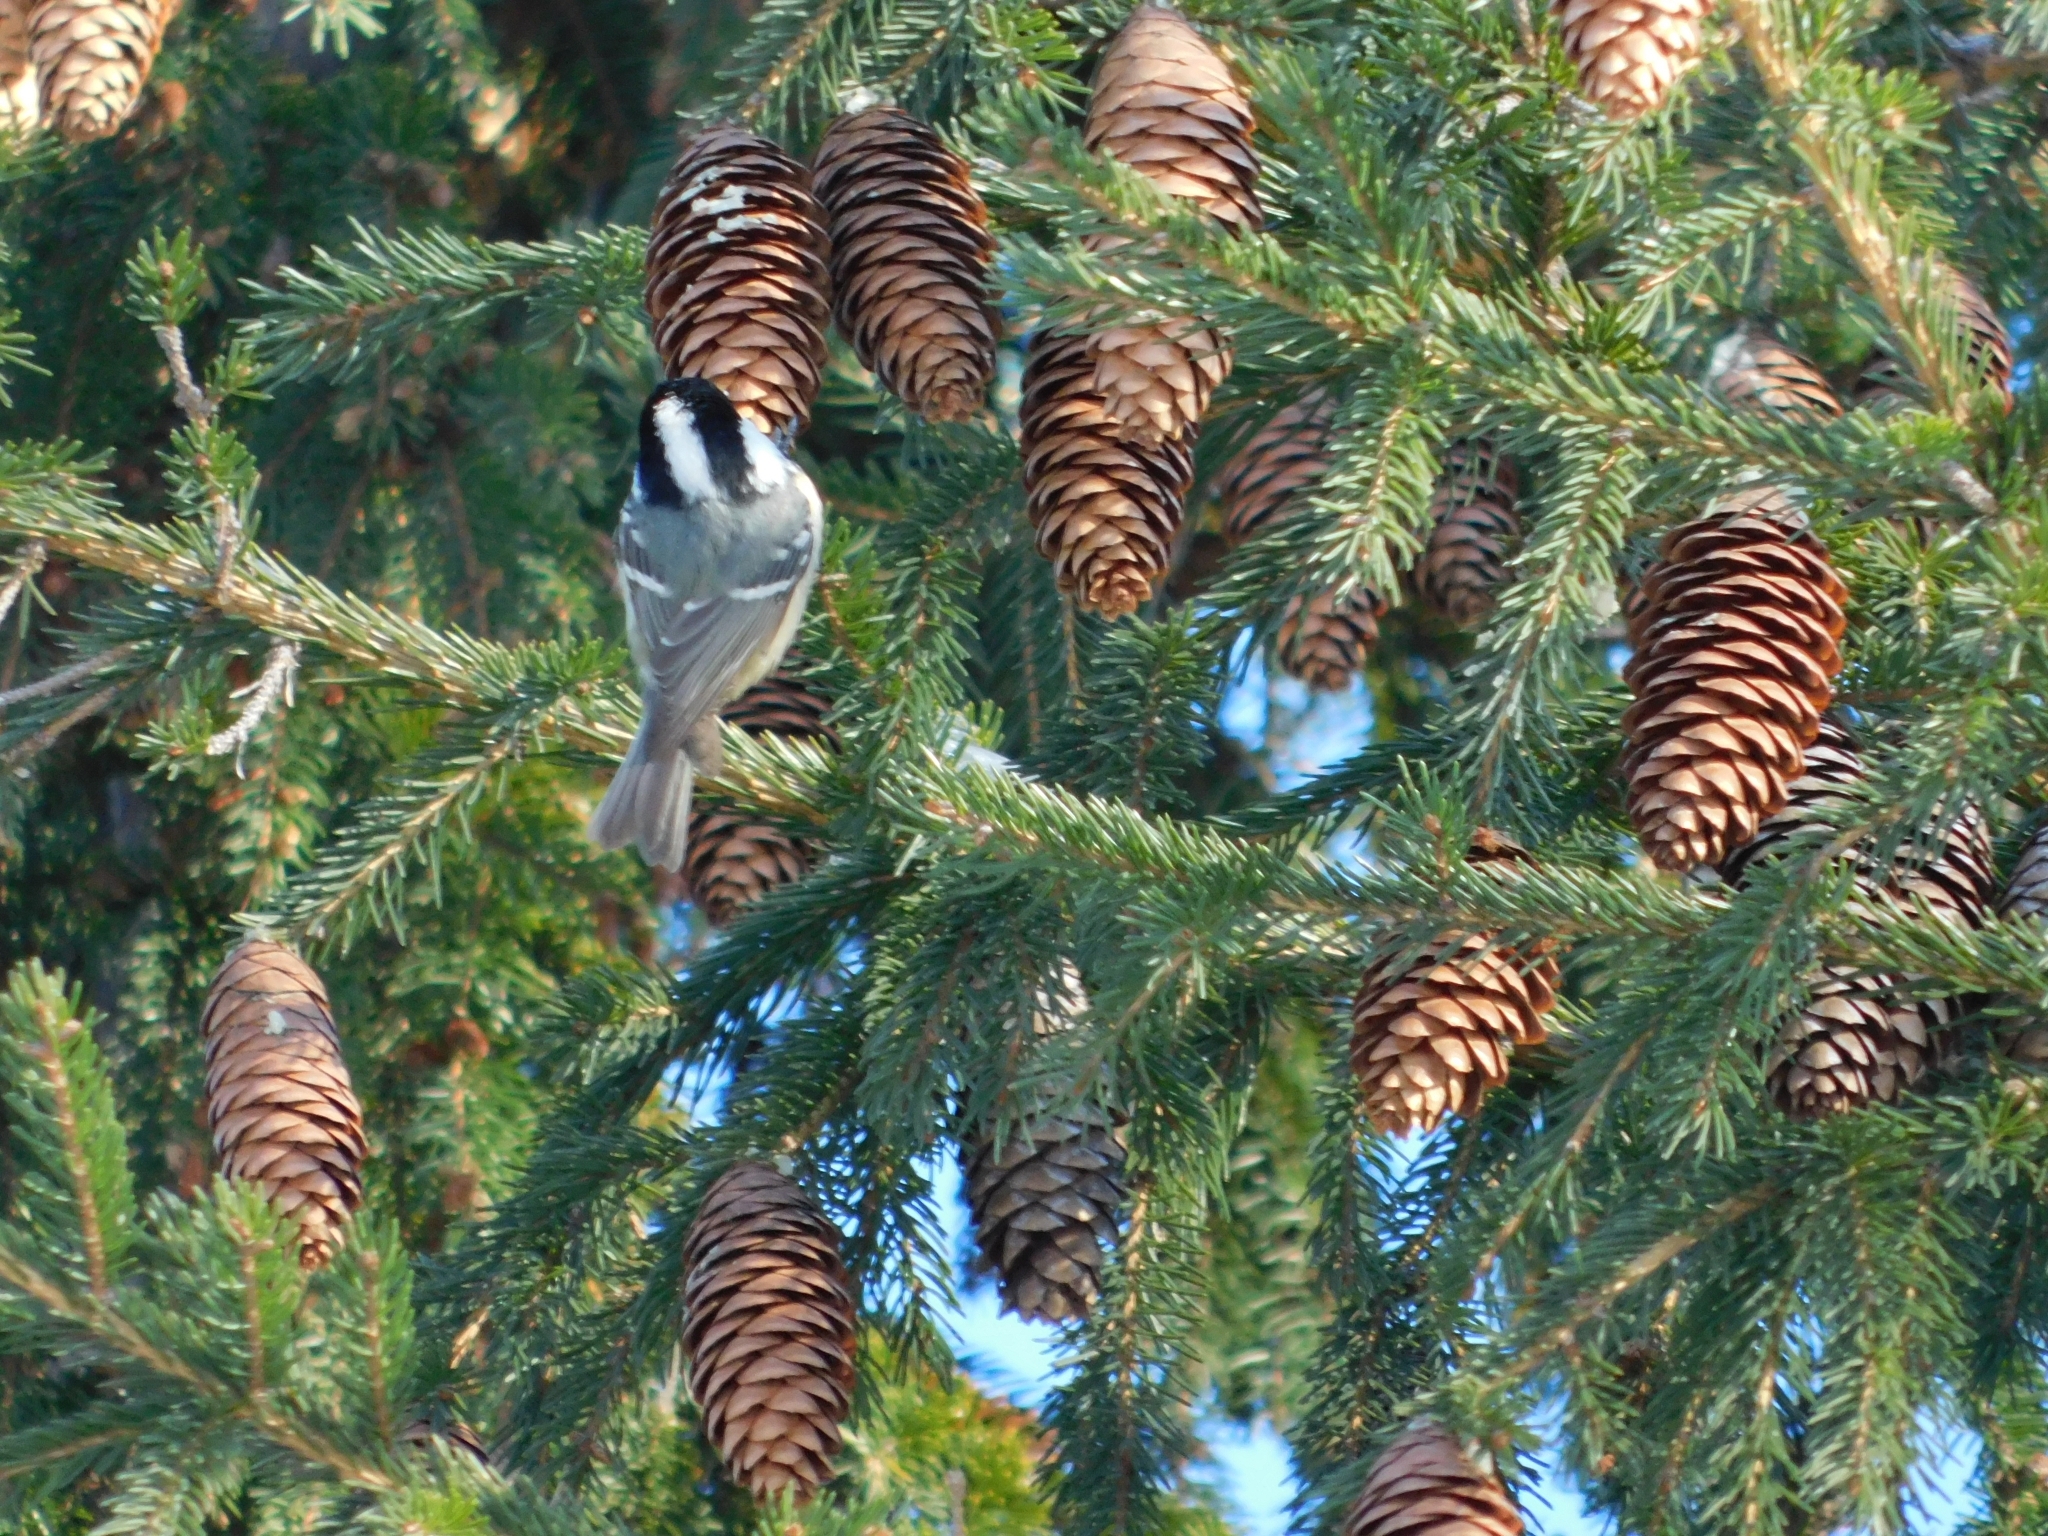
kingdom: Animalia
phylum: Chordata
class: Aves
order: Passeriformes
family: Paridae
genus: Periparus
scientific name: Periparus ater
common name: Coal tit
